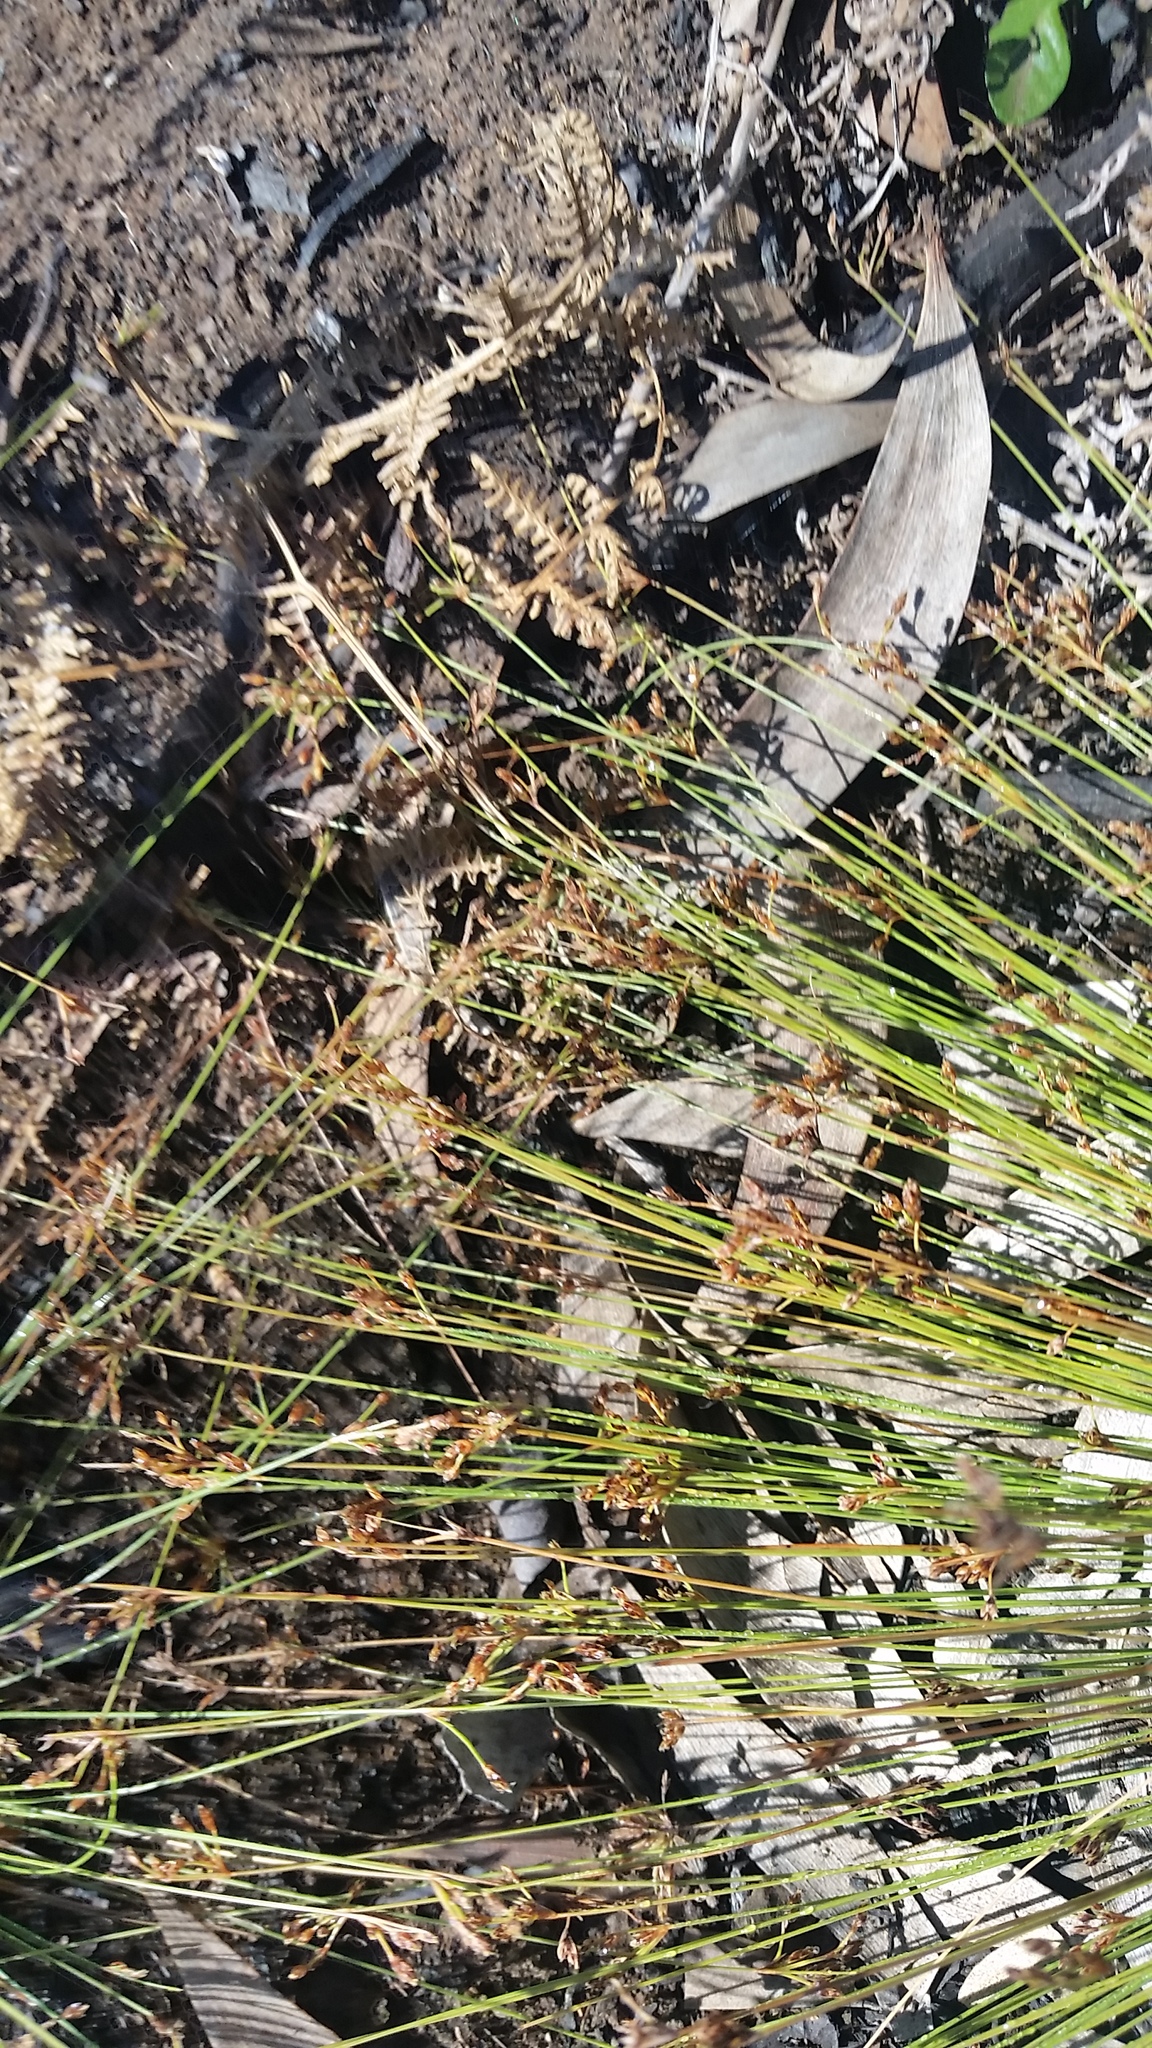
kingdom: Plantae
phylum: Tracheophyta
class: Liliopsida
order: Poales
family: Cyperaceae
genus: Bulbostylis
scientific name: Bulbostylis capillaris
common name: Densetuft hairsedge
